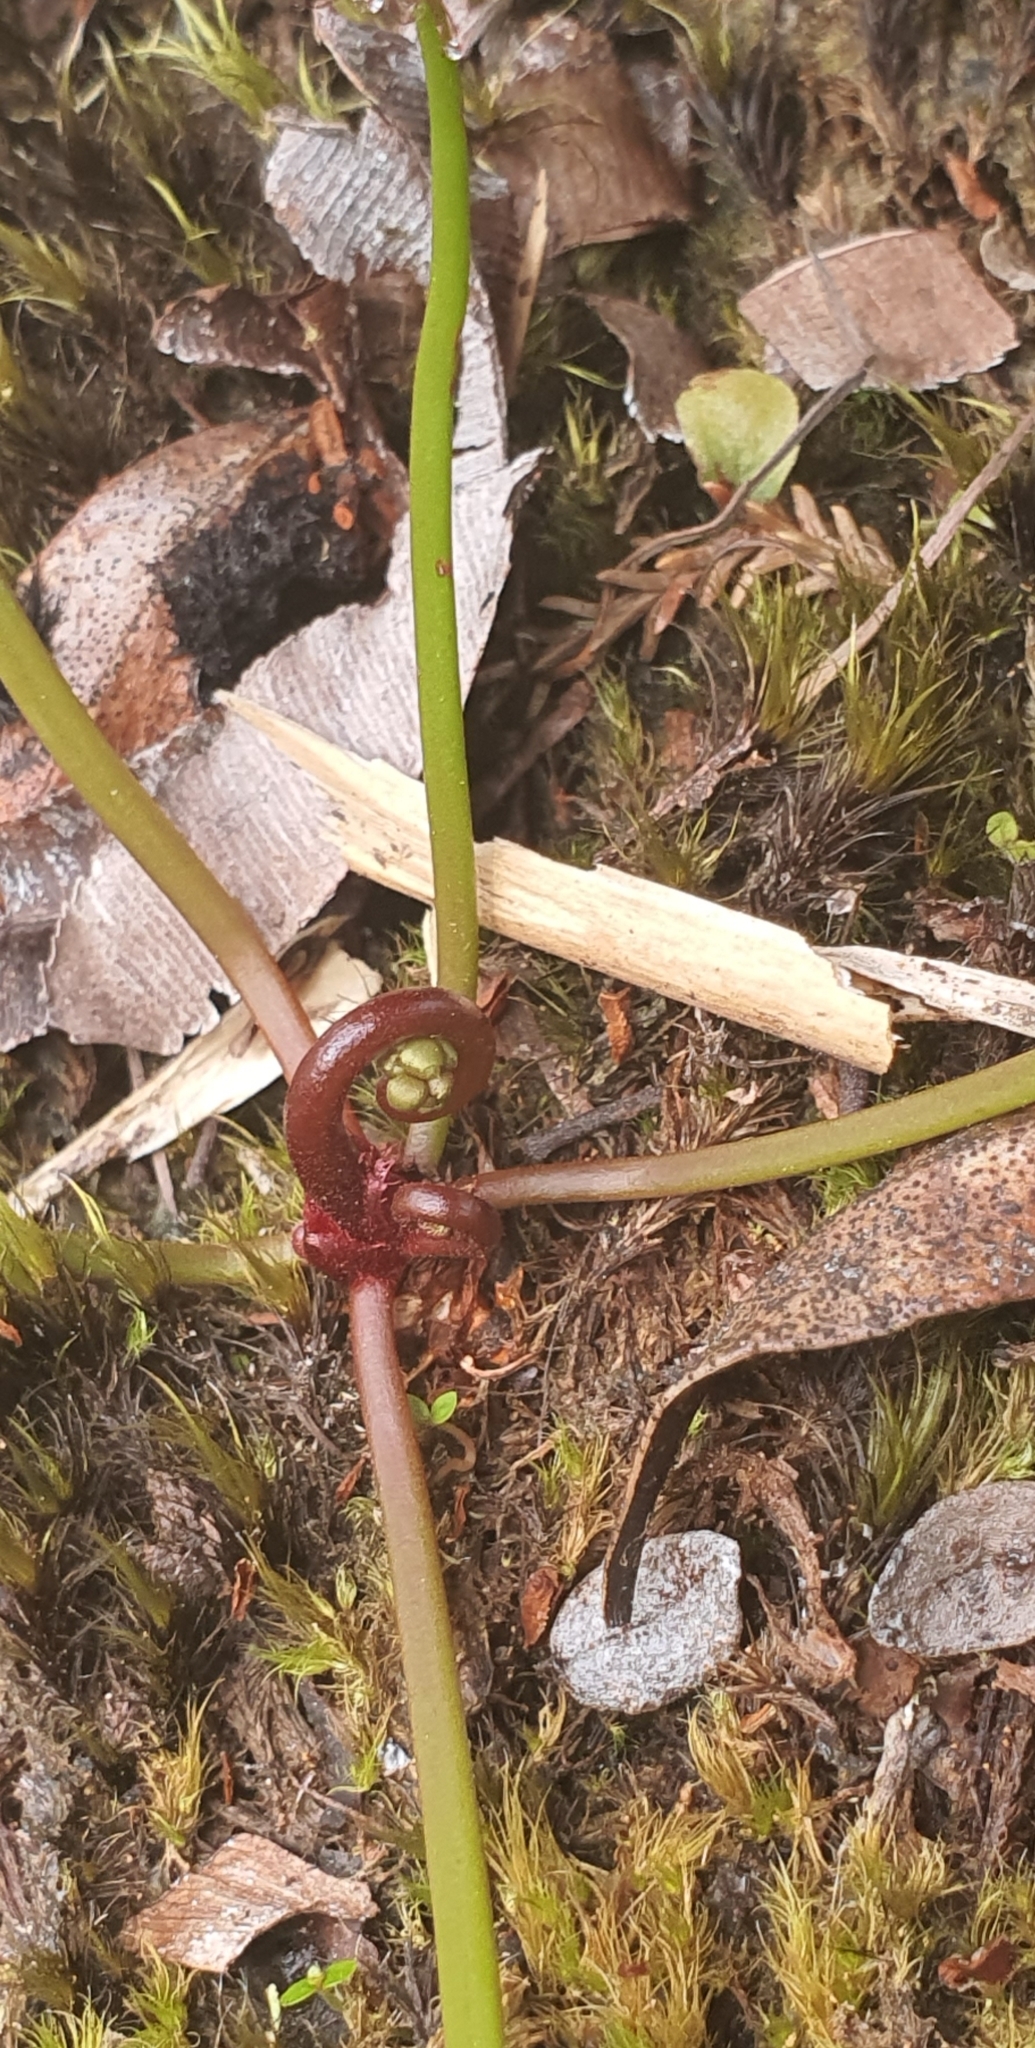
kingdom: Plantae
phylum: Tracheophyta
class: Magnoliopsida
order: Caryophyllales
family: Droseraceae
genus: Drosera
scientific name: Drosera binata
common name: Forked sundew
